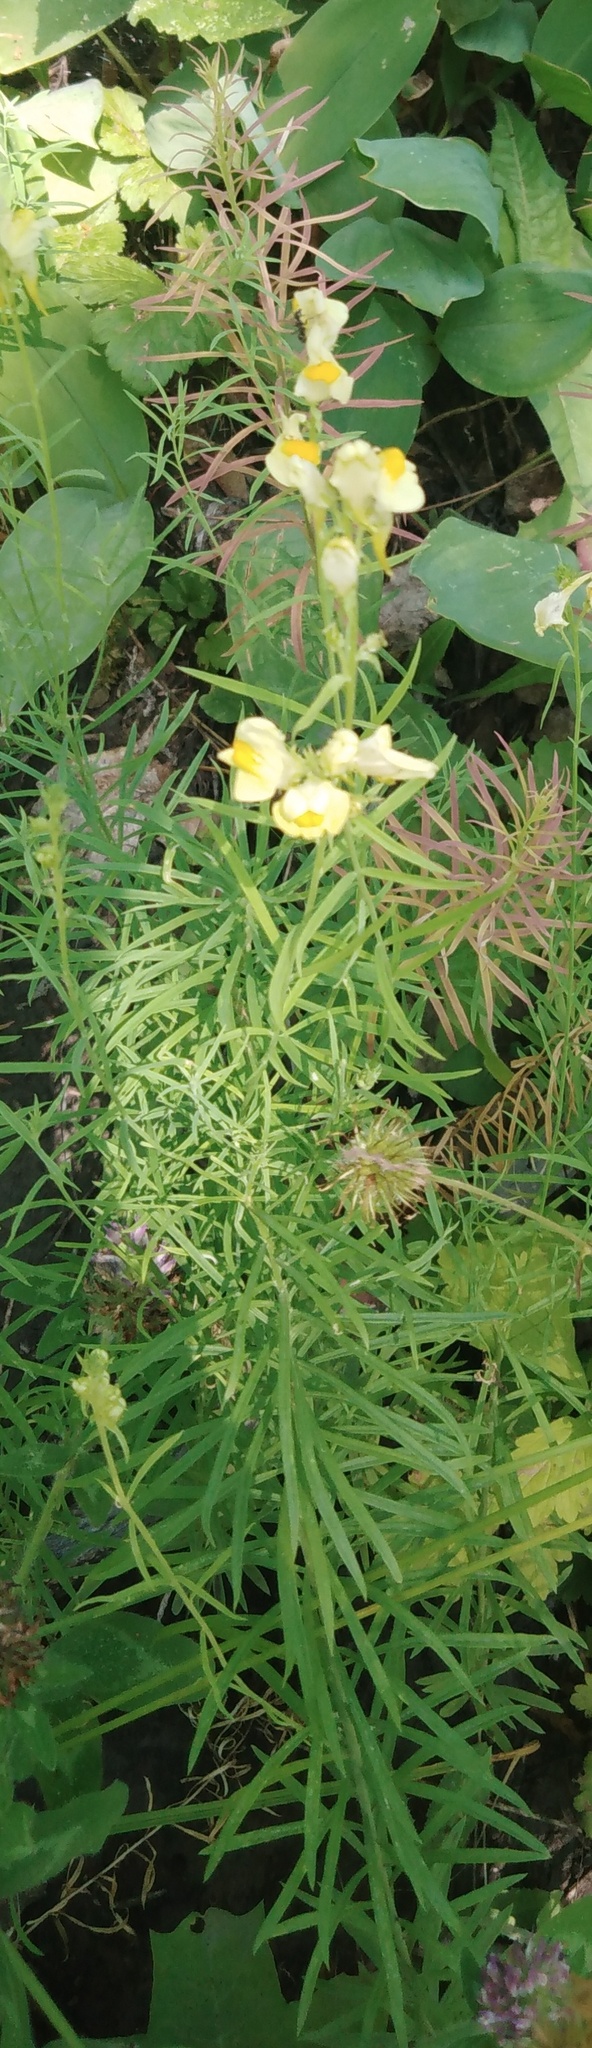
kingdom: Plantae
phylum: Tracheophyta
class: Magnoliopsida
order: Lamiales
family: Plantaginaceae
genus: Linaria
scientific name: Linaria vulgaris
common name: Butter and eggs
